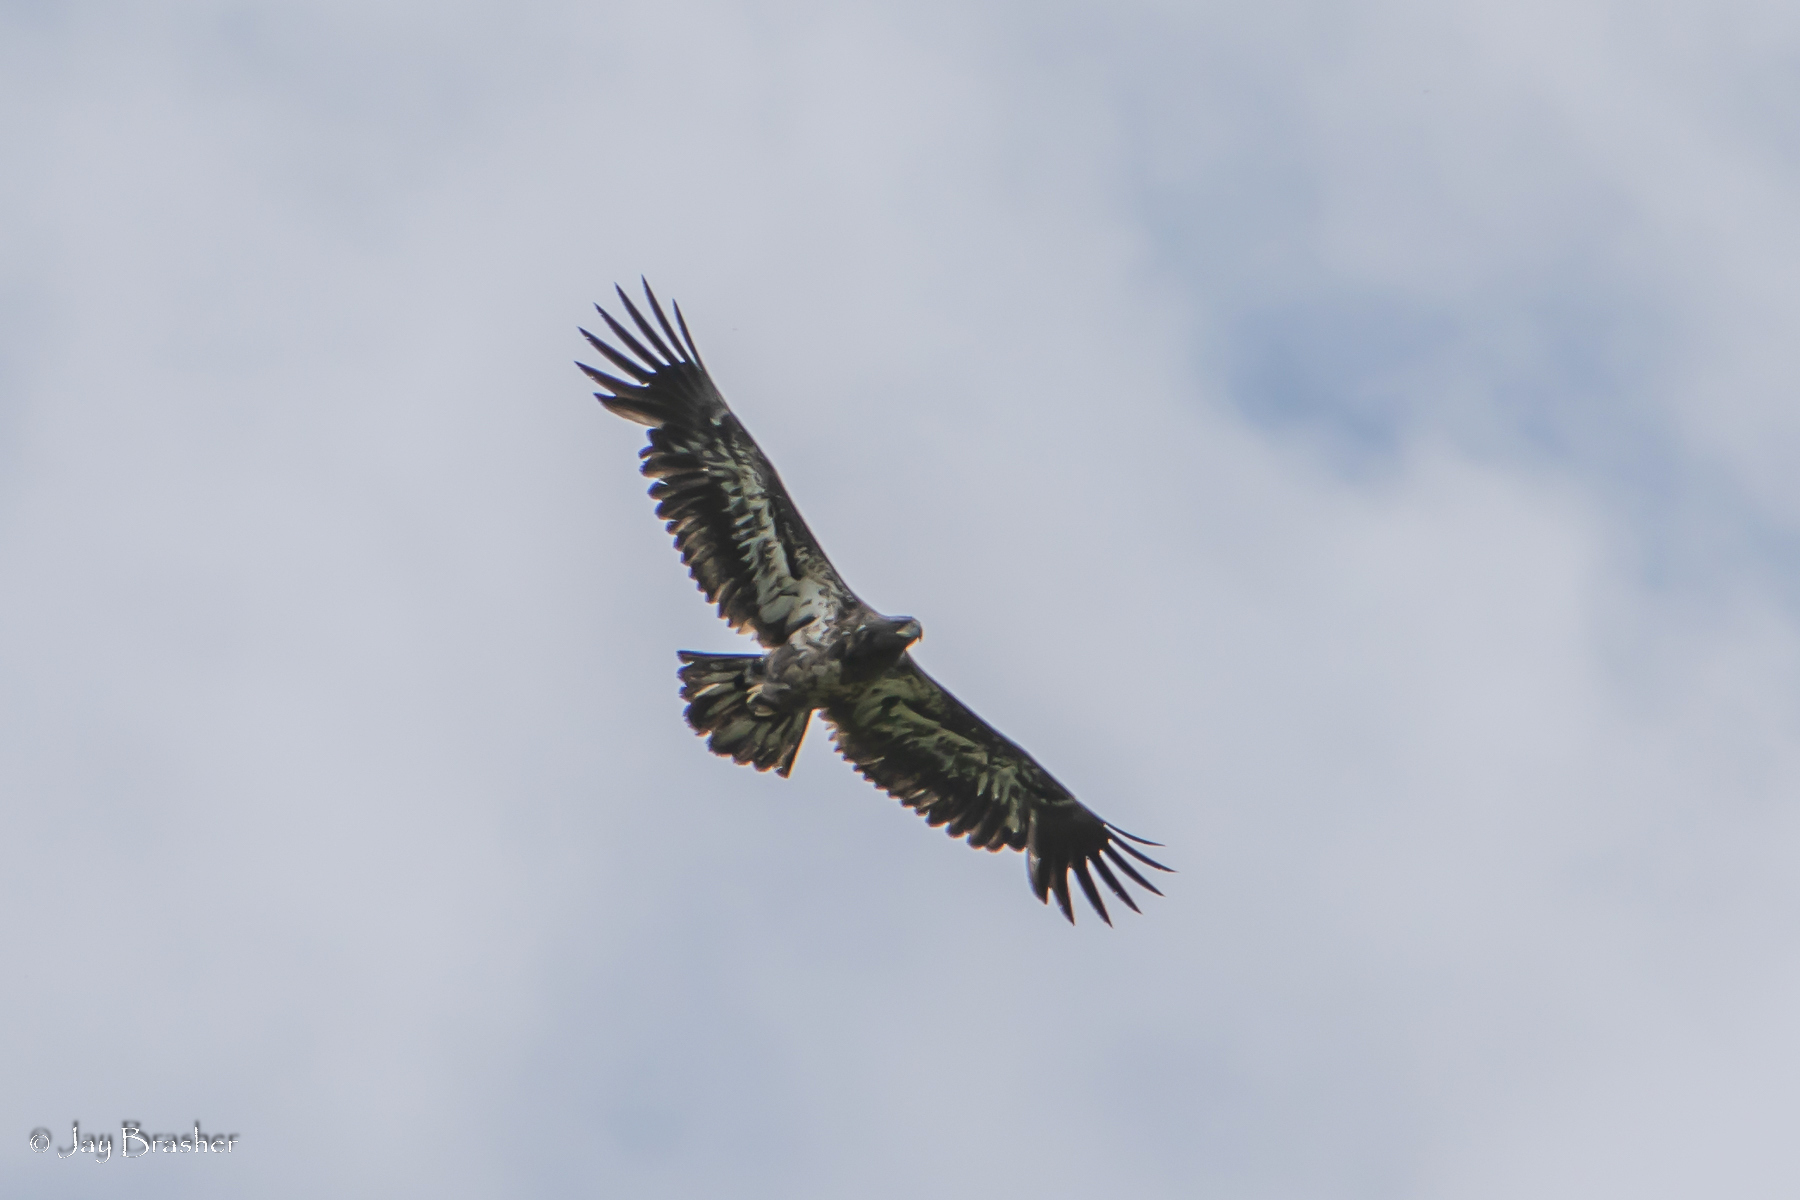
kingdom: Animalia
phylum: Chordata
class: Aves
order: Accipitriformes
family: Accipitridae
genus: Haliaeetus
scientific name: Haliaeetus leucocephalus
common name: Bald eagle
